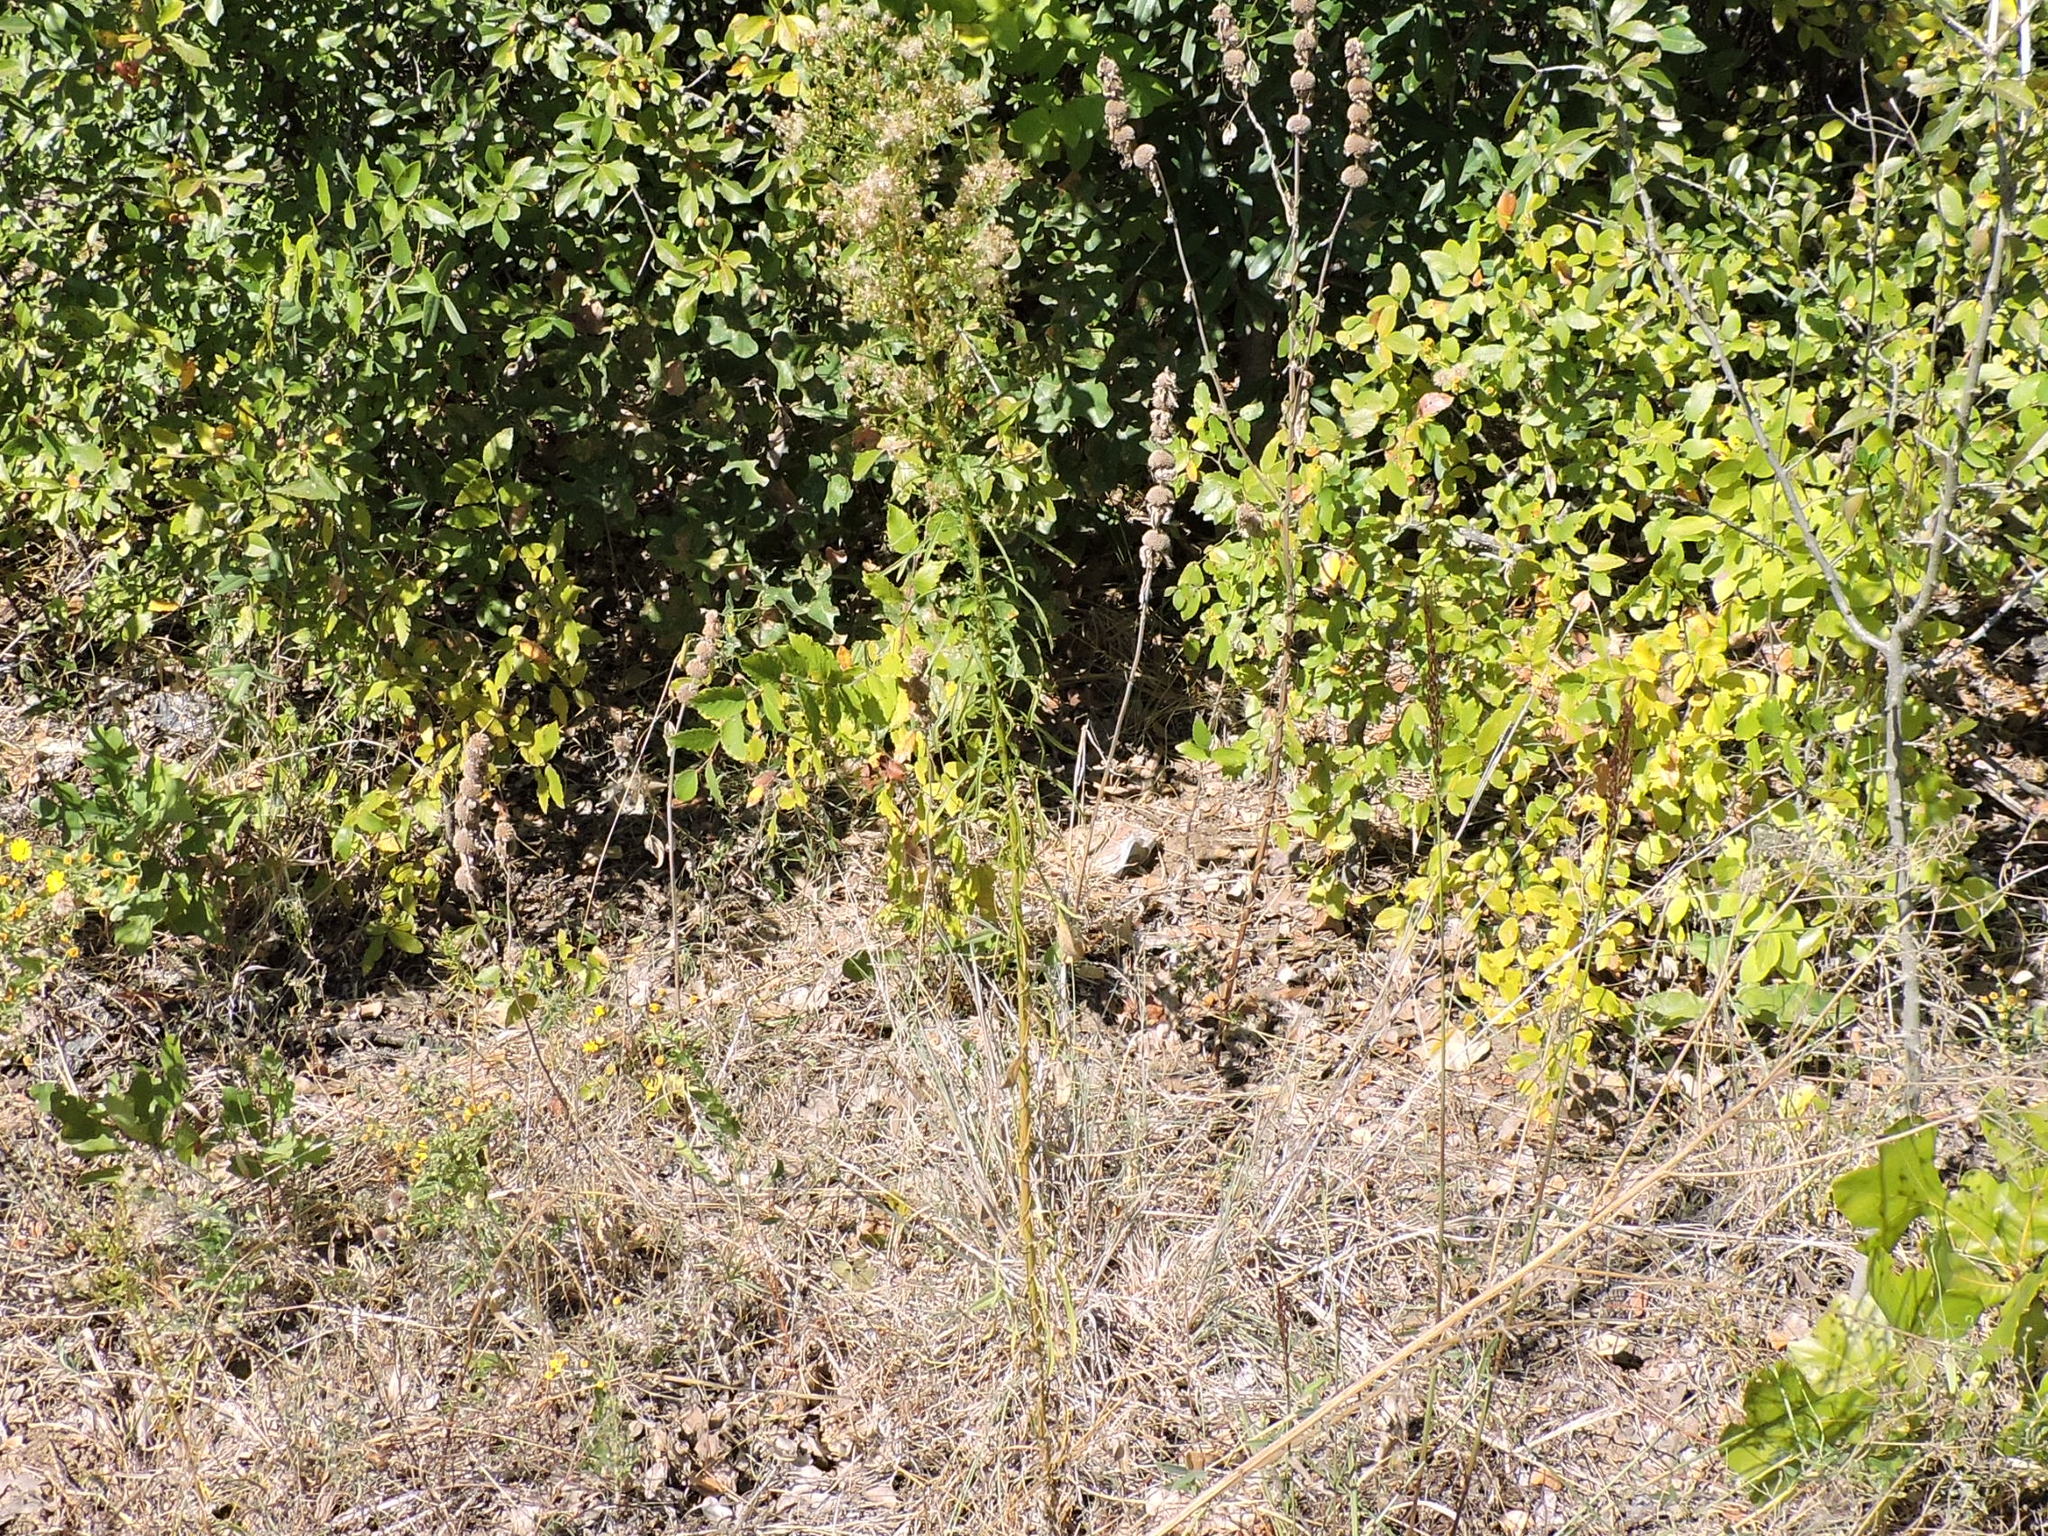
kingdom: Plantae
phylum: Tracheophyta
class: Magnoliopsida
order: Asterales
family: Asteraceae
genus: Erigeron
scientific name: Erigeron canadensis
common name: Canadian fleabane
